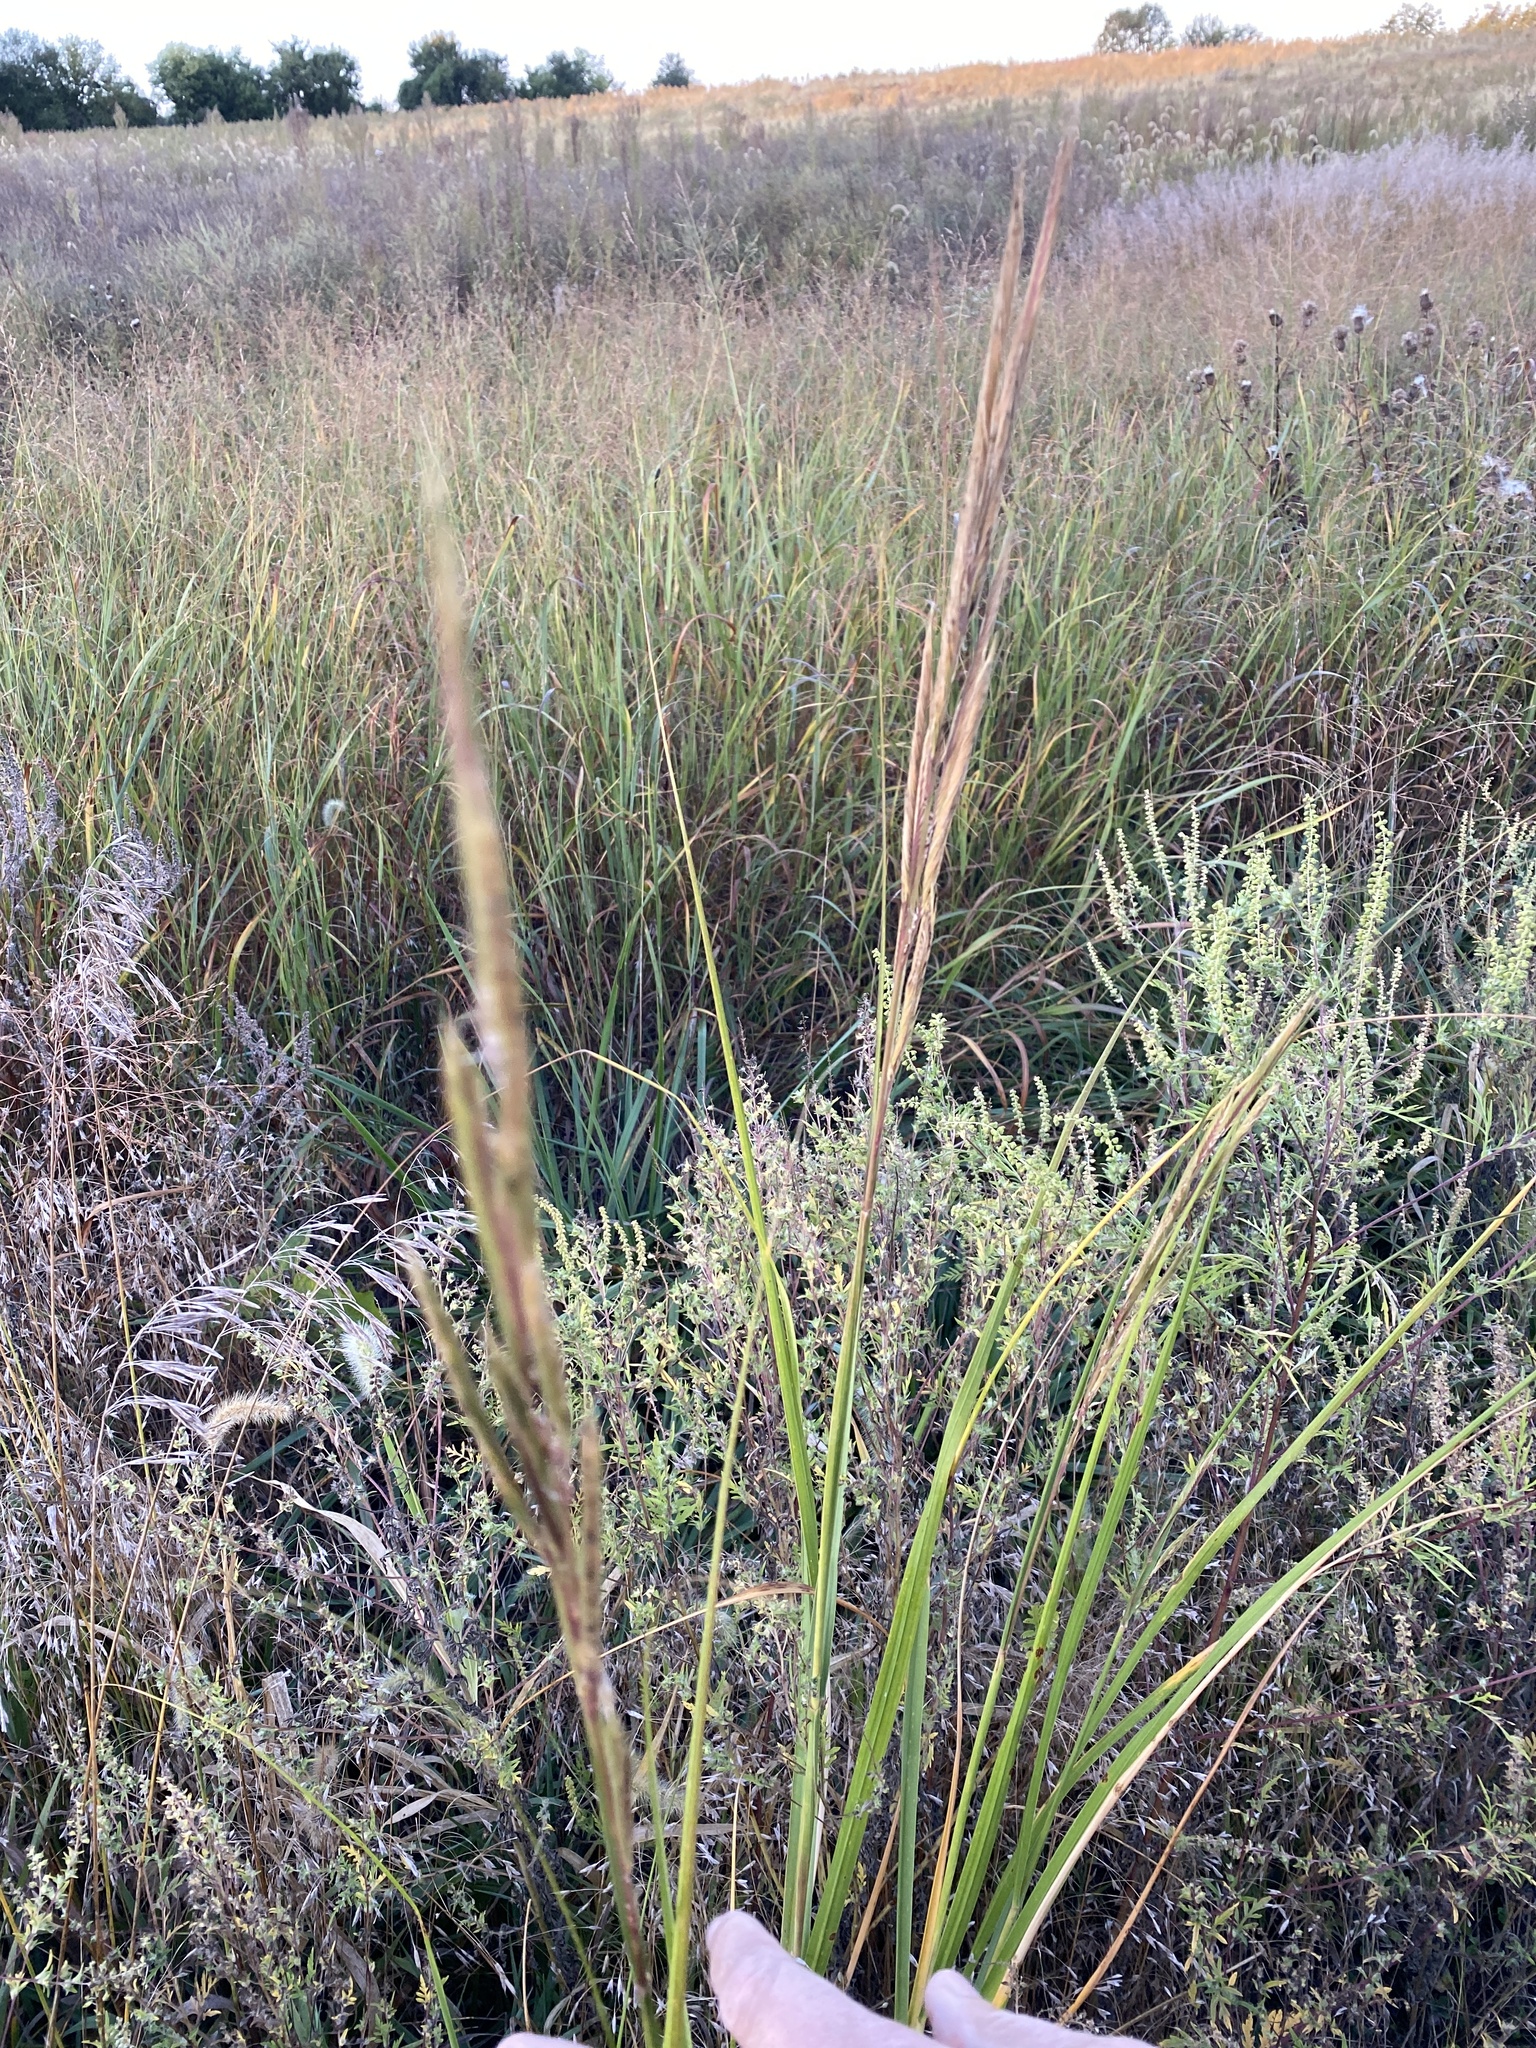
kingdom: Plantae
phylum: Tracheophyta
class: Liliopsida
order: Poales
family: Poaceae
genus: Sporobolus
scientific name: Sporobolus michauxianus
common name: Freshwater cordgrass
